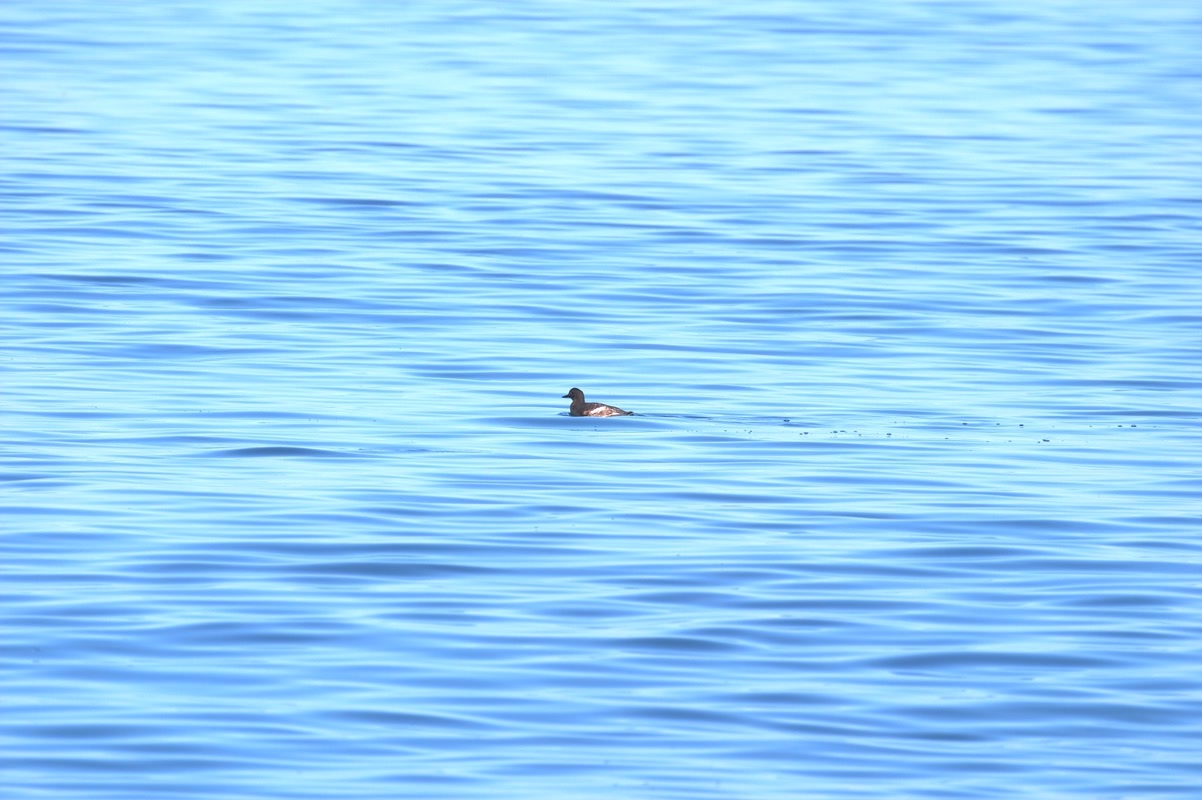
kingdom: Animalia
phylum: Chordata
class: Aves
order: Charadriiformes
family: Alcidae
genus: Cepphus
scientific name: Cepphus columba
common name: Pigeon guillemot
